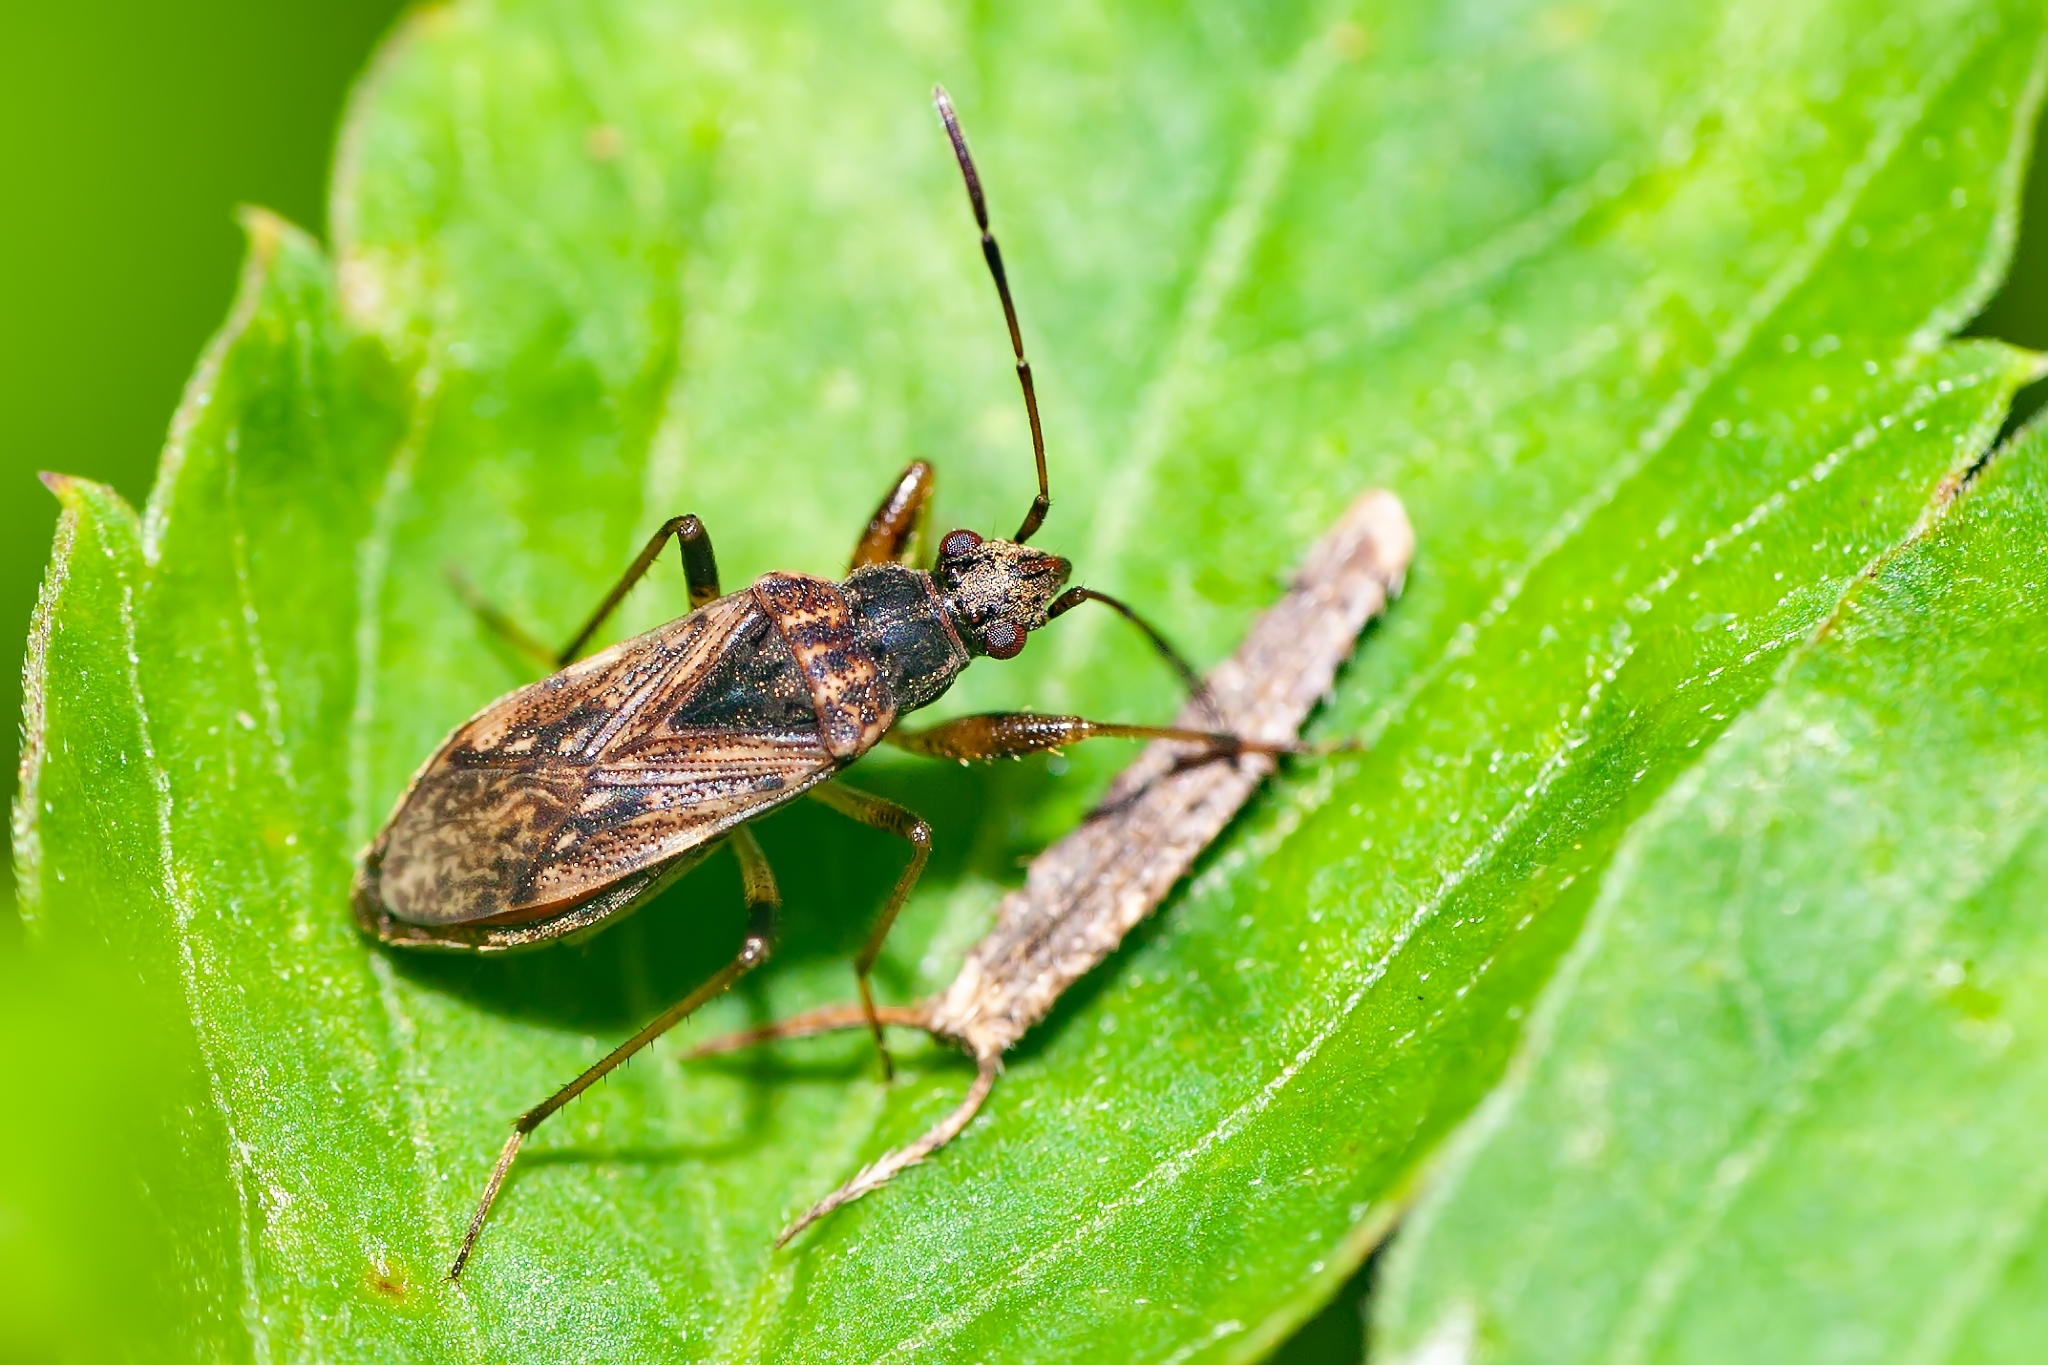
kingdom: Animalia
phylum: Arthropoda
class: Insecta
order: Hemiptera
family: Rhyparochromidae
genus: Pseudopachybrachius
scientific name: Pseudopachybrachius basalis
